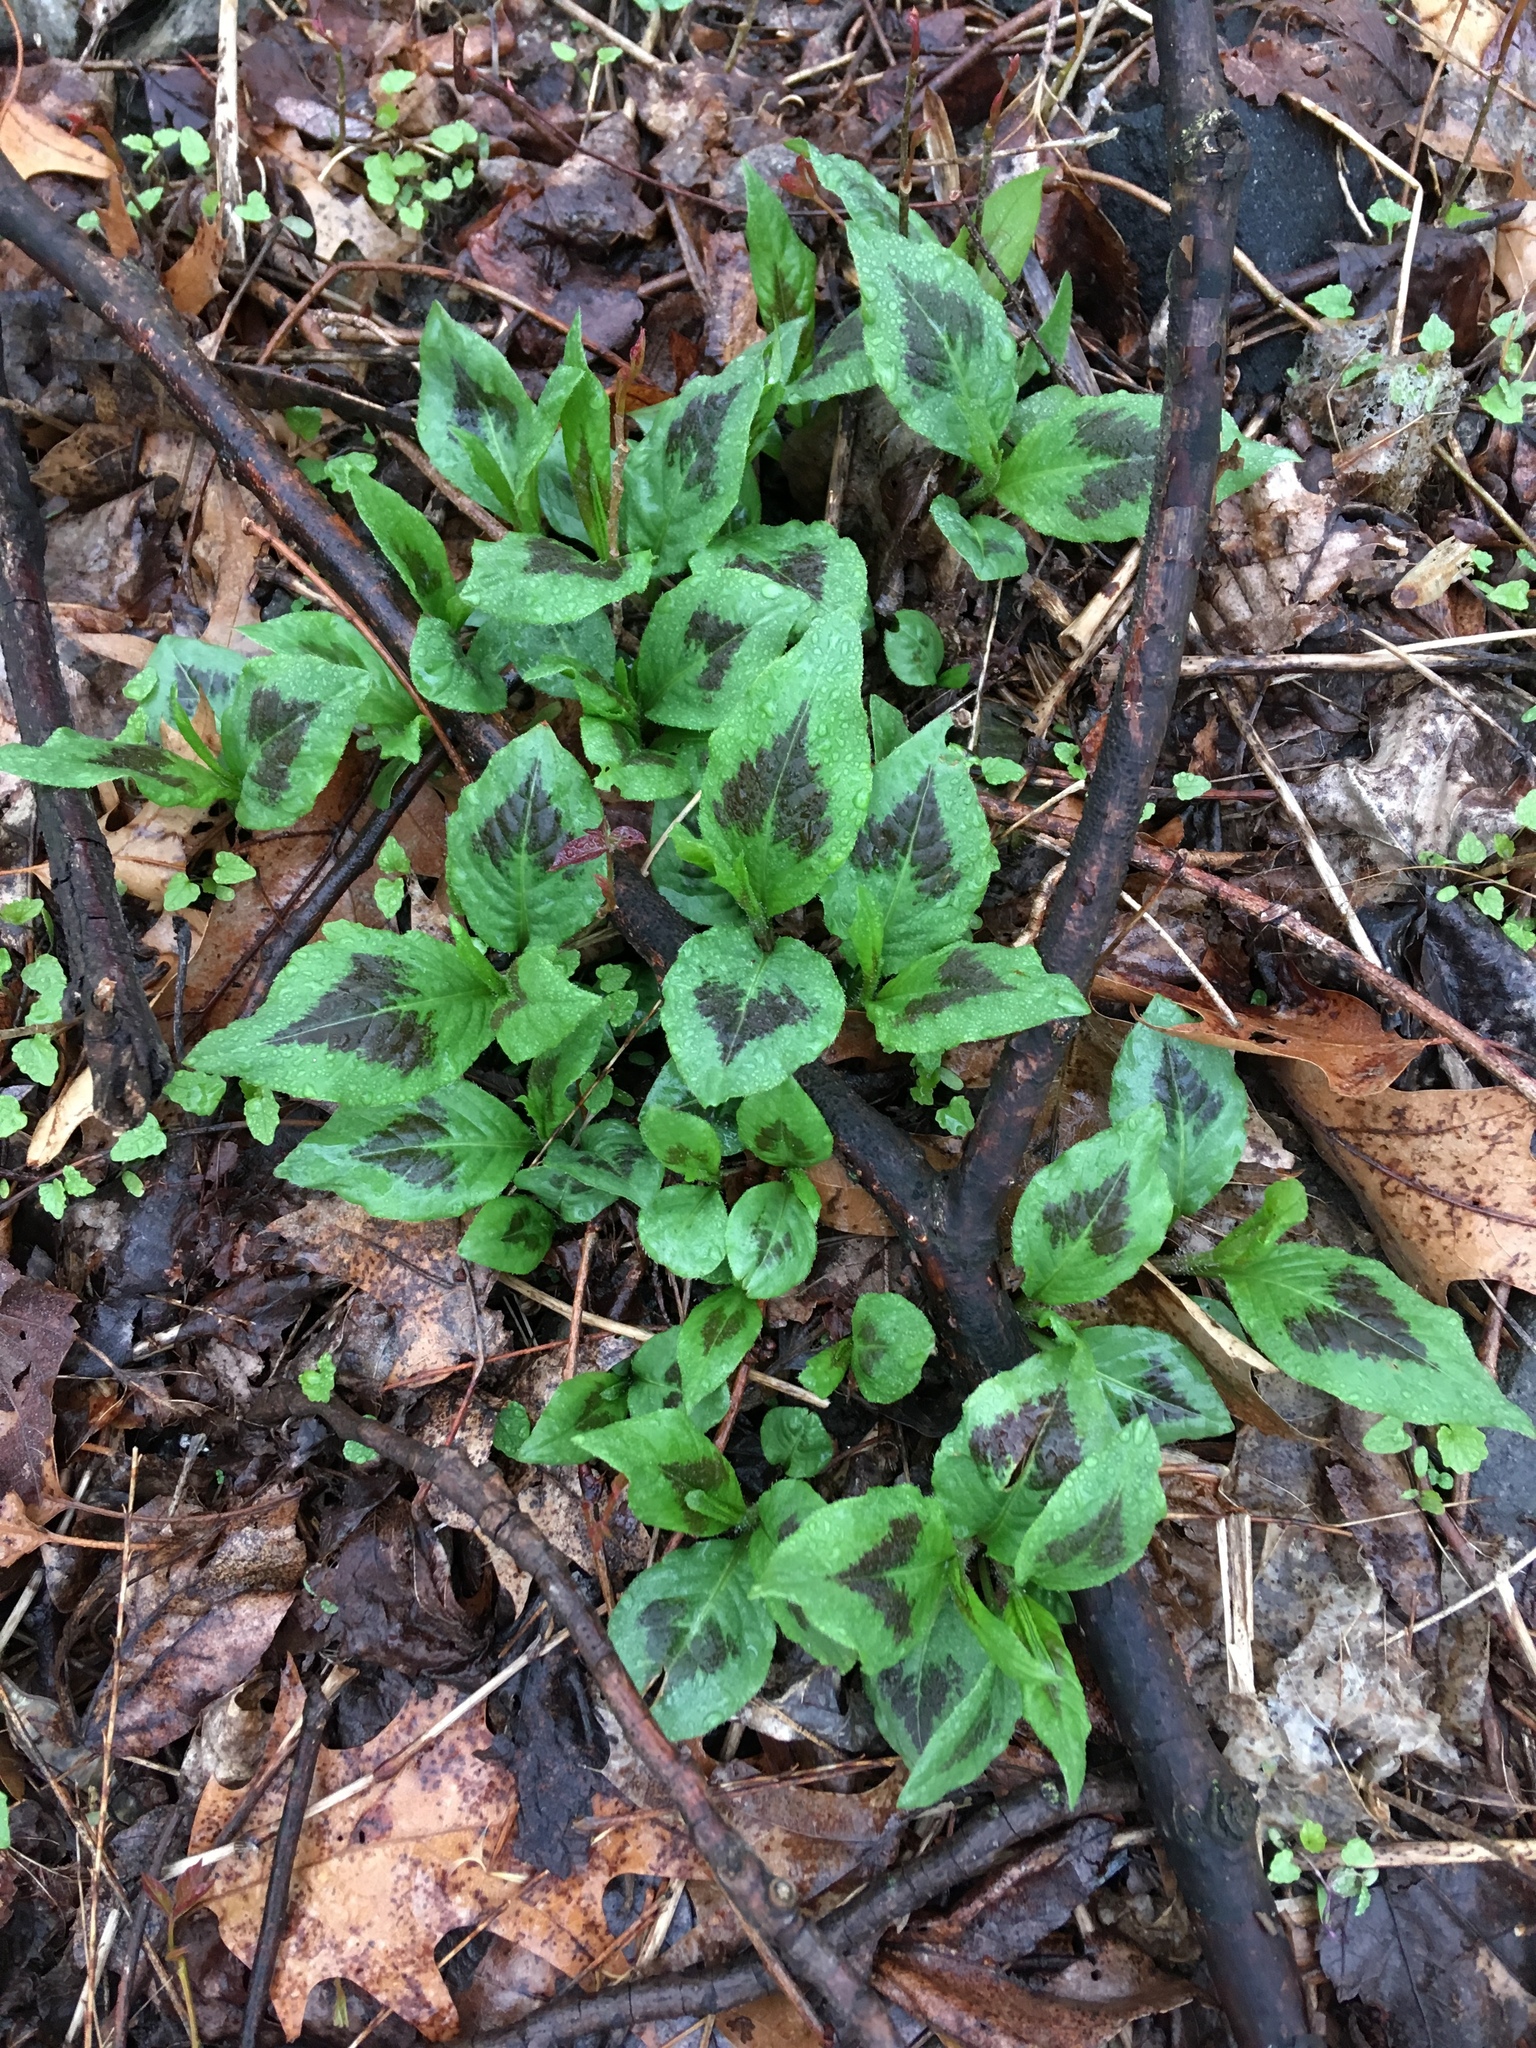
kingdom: Plantae
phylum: Tracheophyta
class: Magnoliopsida
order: Caryophyllales
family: Polygonaceae
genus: Persicaria
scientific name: Persicaria virginiana
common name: Jumpseed
